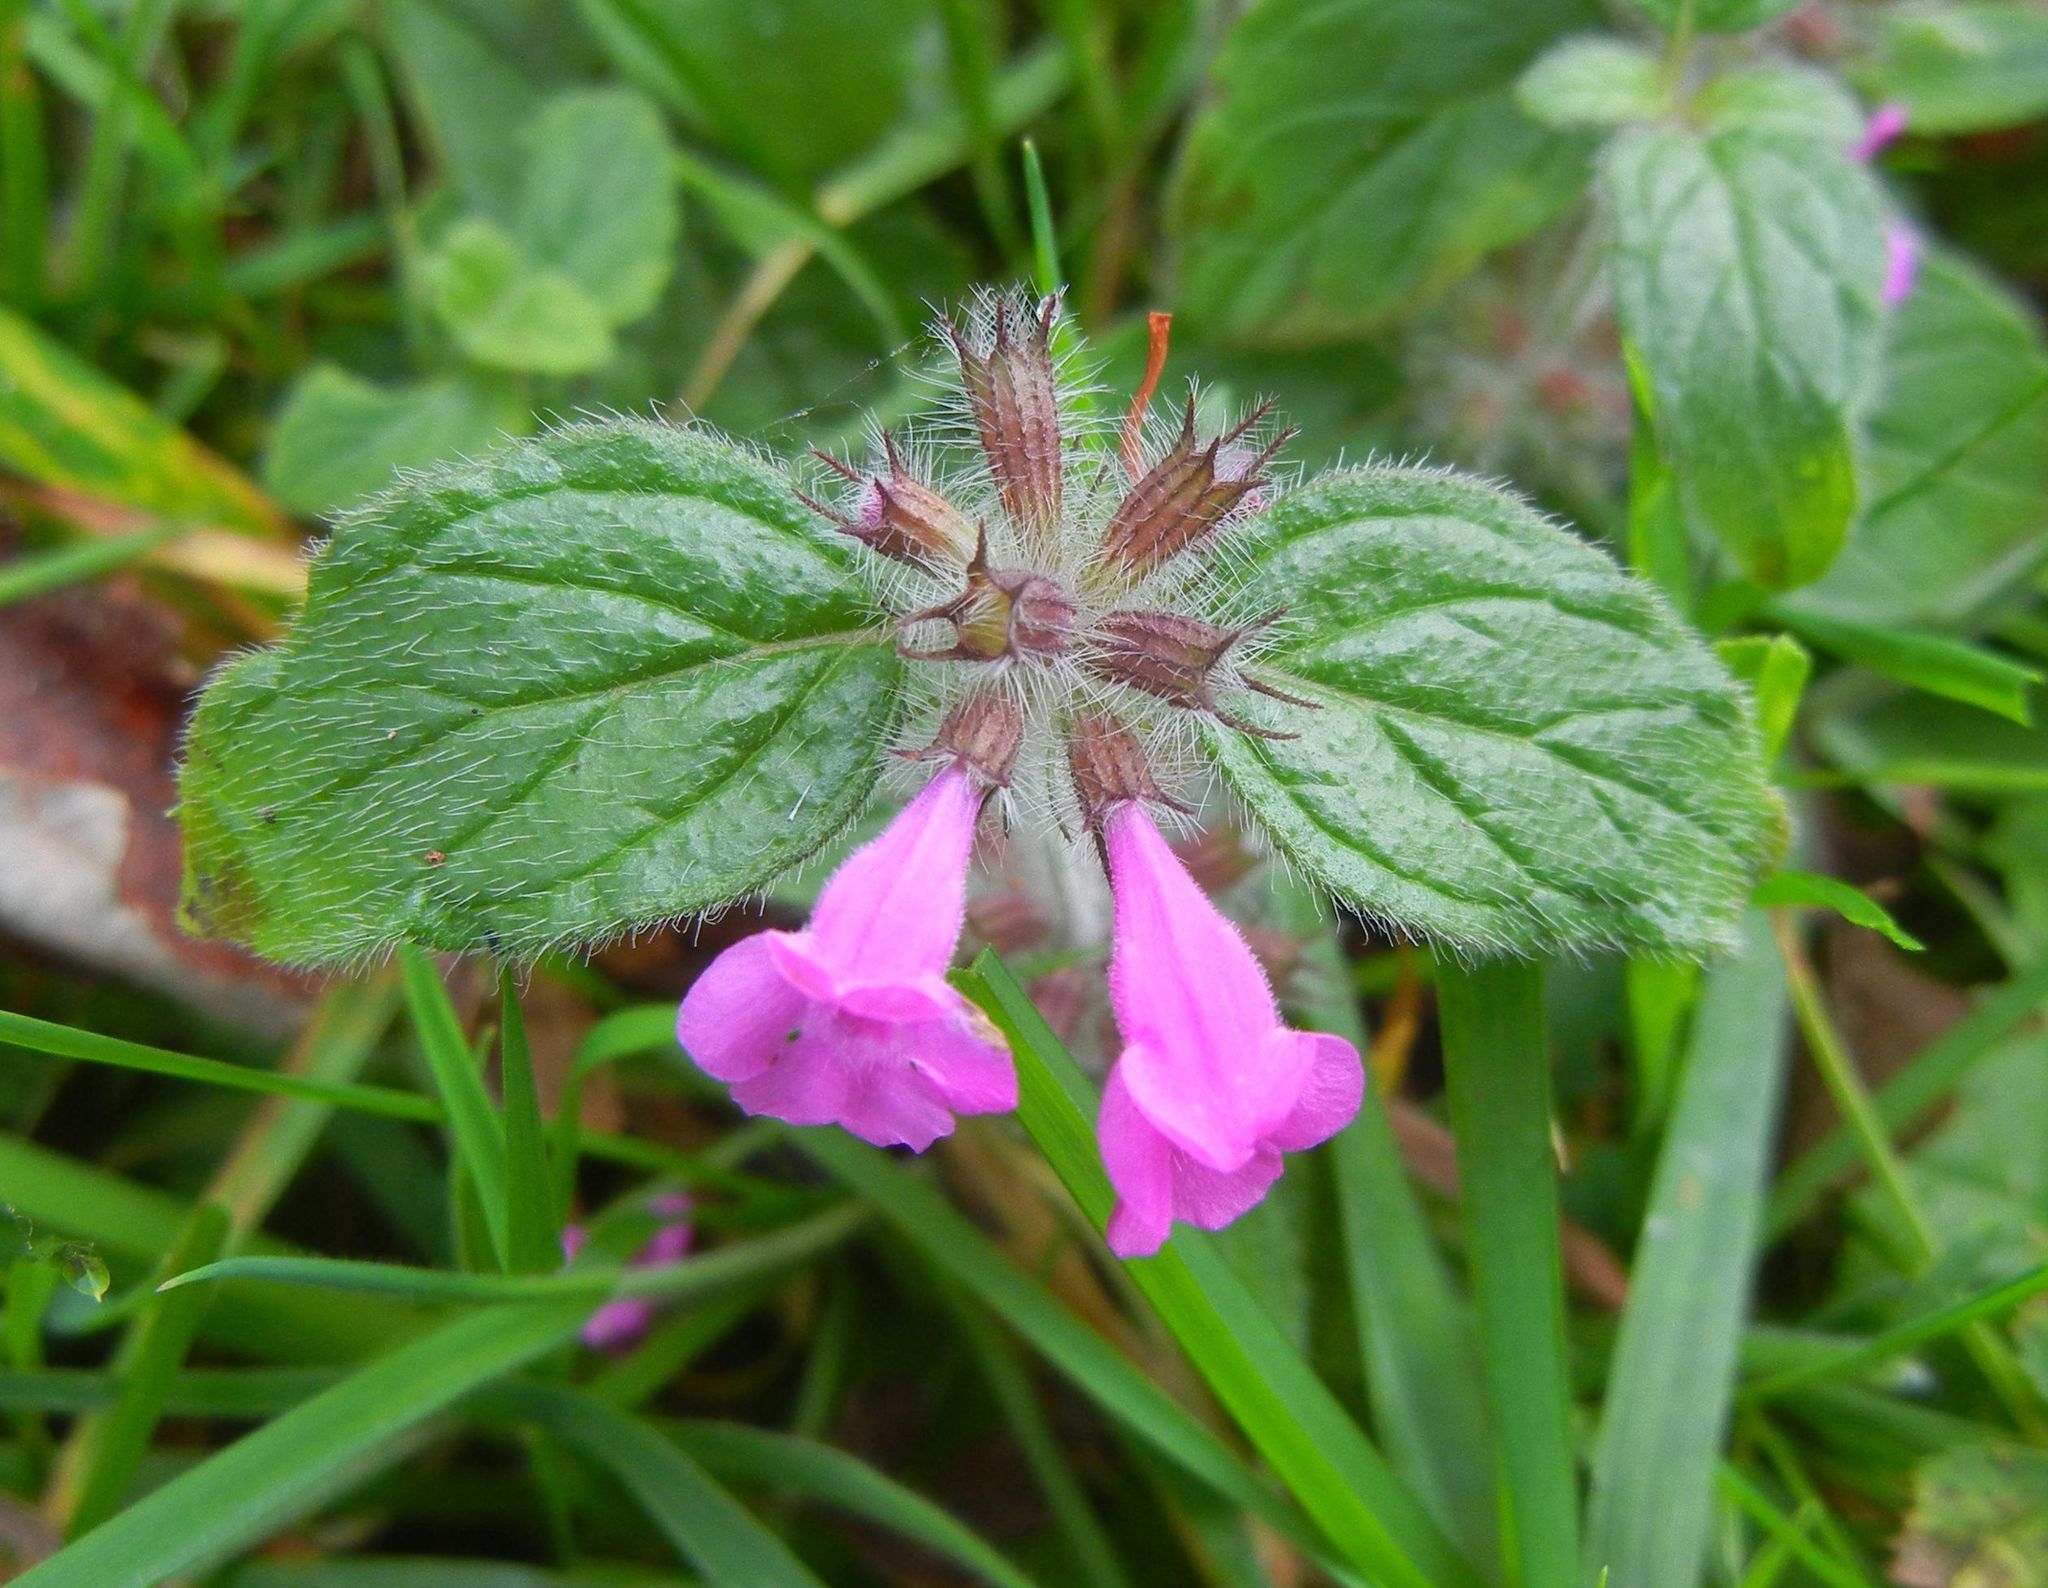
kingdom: Plantae
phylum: Tracheophyta
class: Magnoliopsida
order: Lamiales
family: Lamiaceae
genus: Clinopodium
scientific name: Clinopodium vulgare
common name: Wild basil
